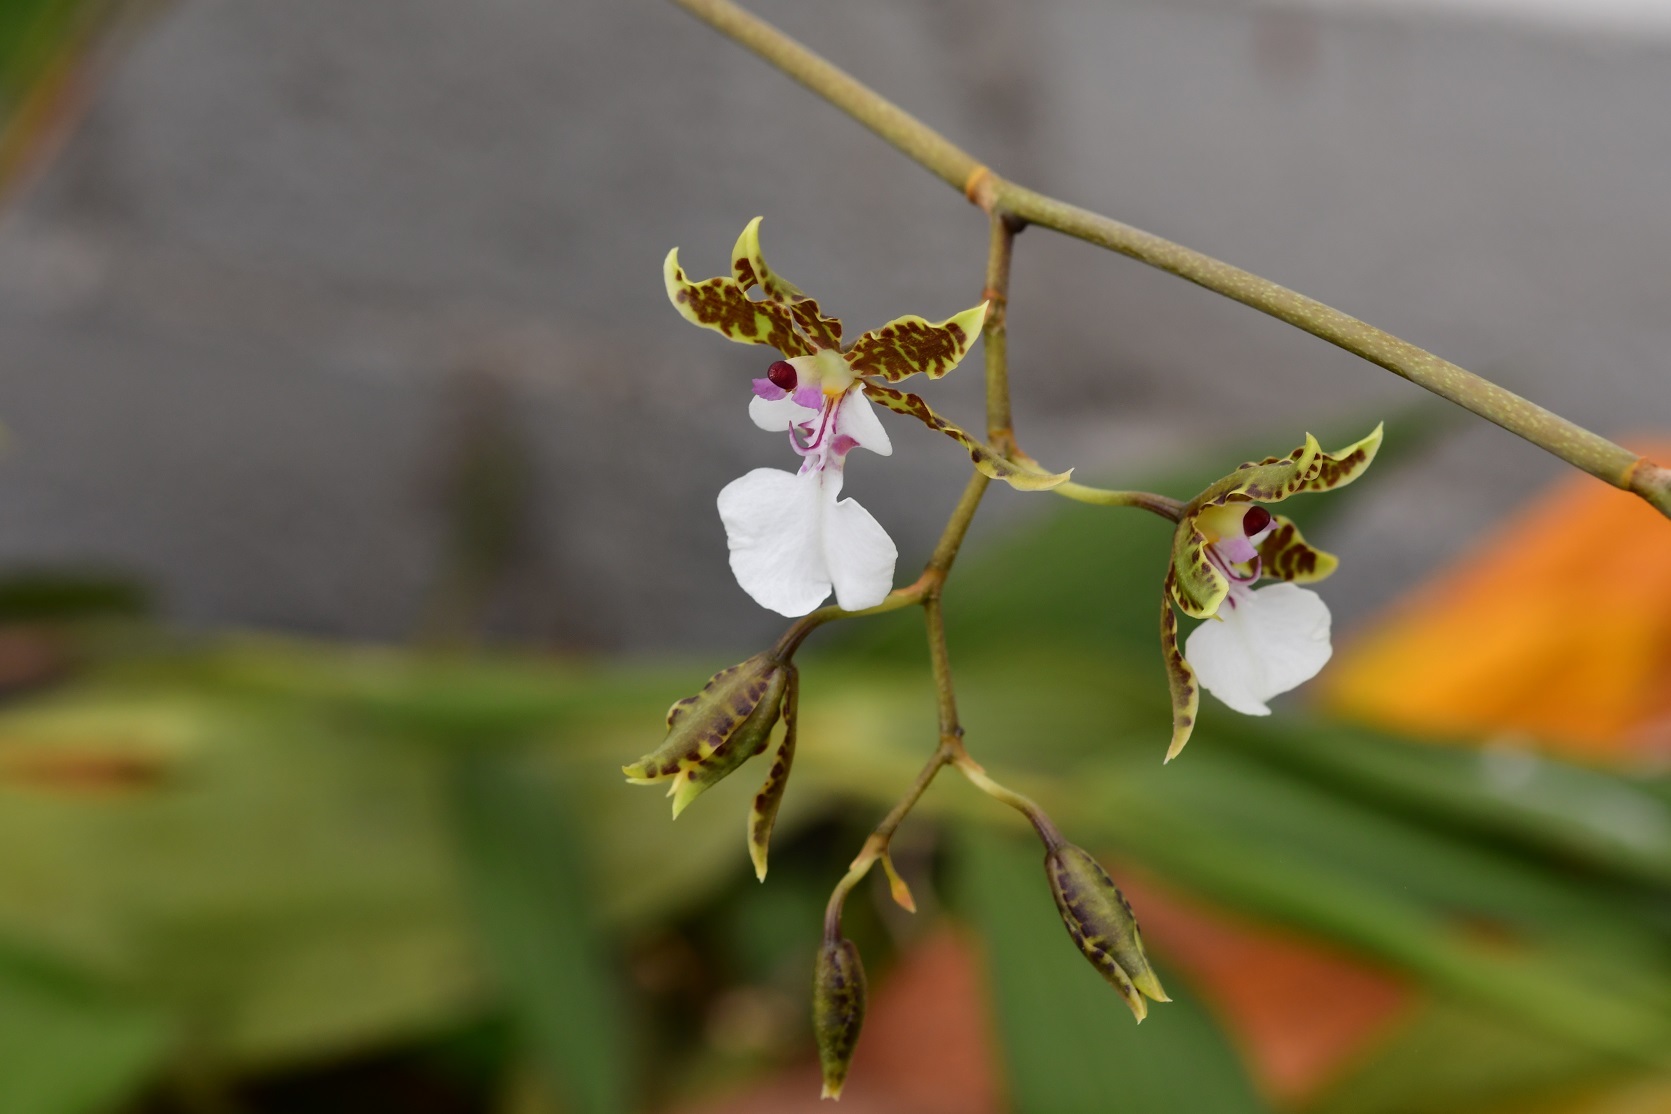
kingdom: Plantae
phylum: Tracheophyta
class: Liliopsida
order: Asparagales
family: Orchidaceae
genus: Oncidium
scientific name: Oncidium leucochilum
